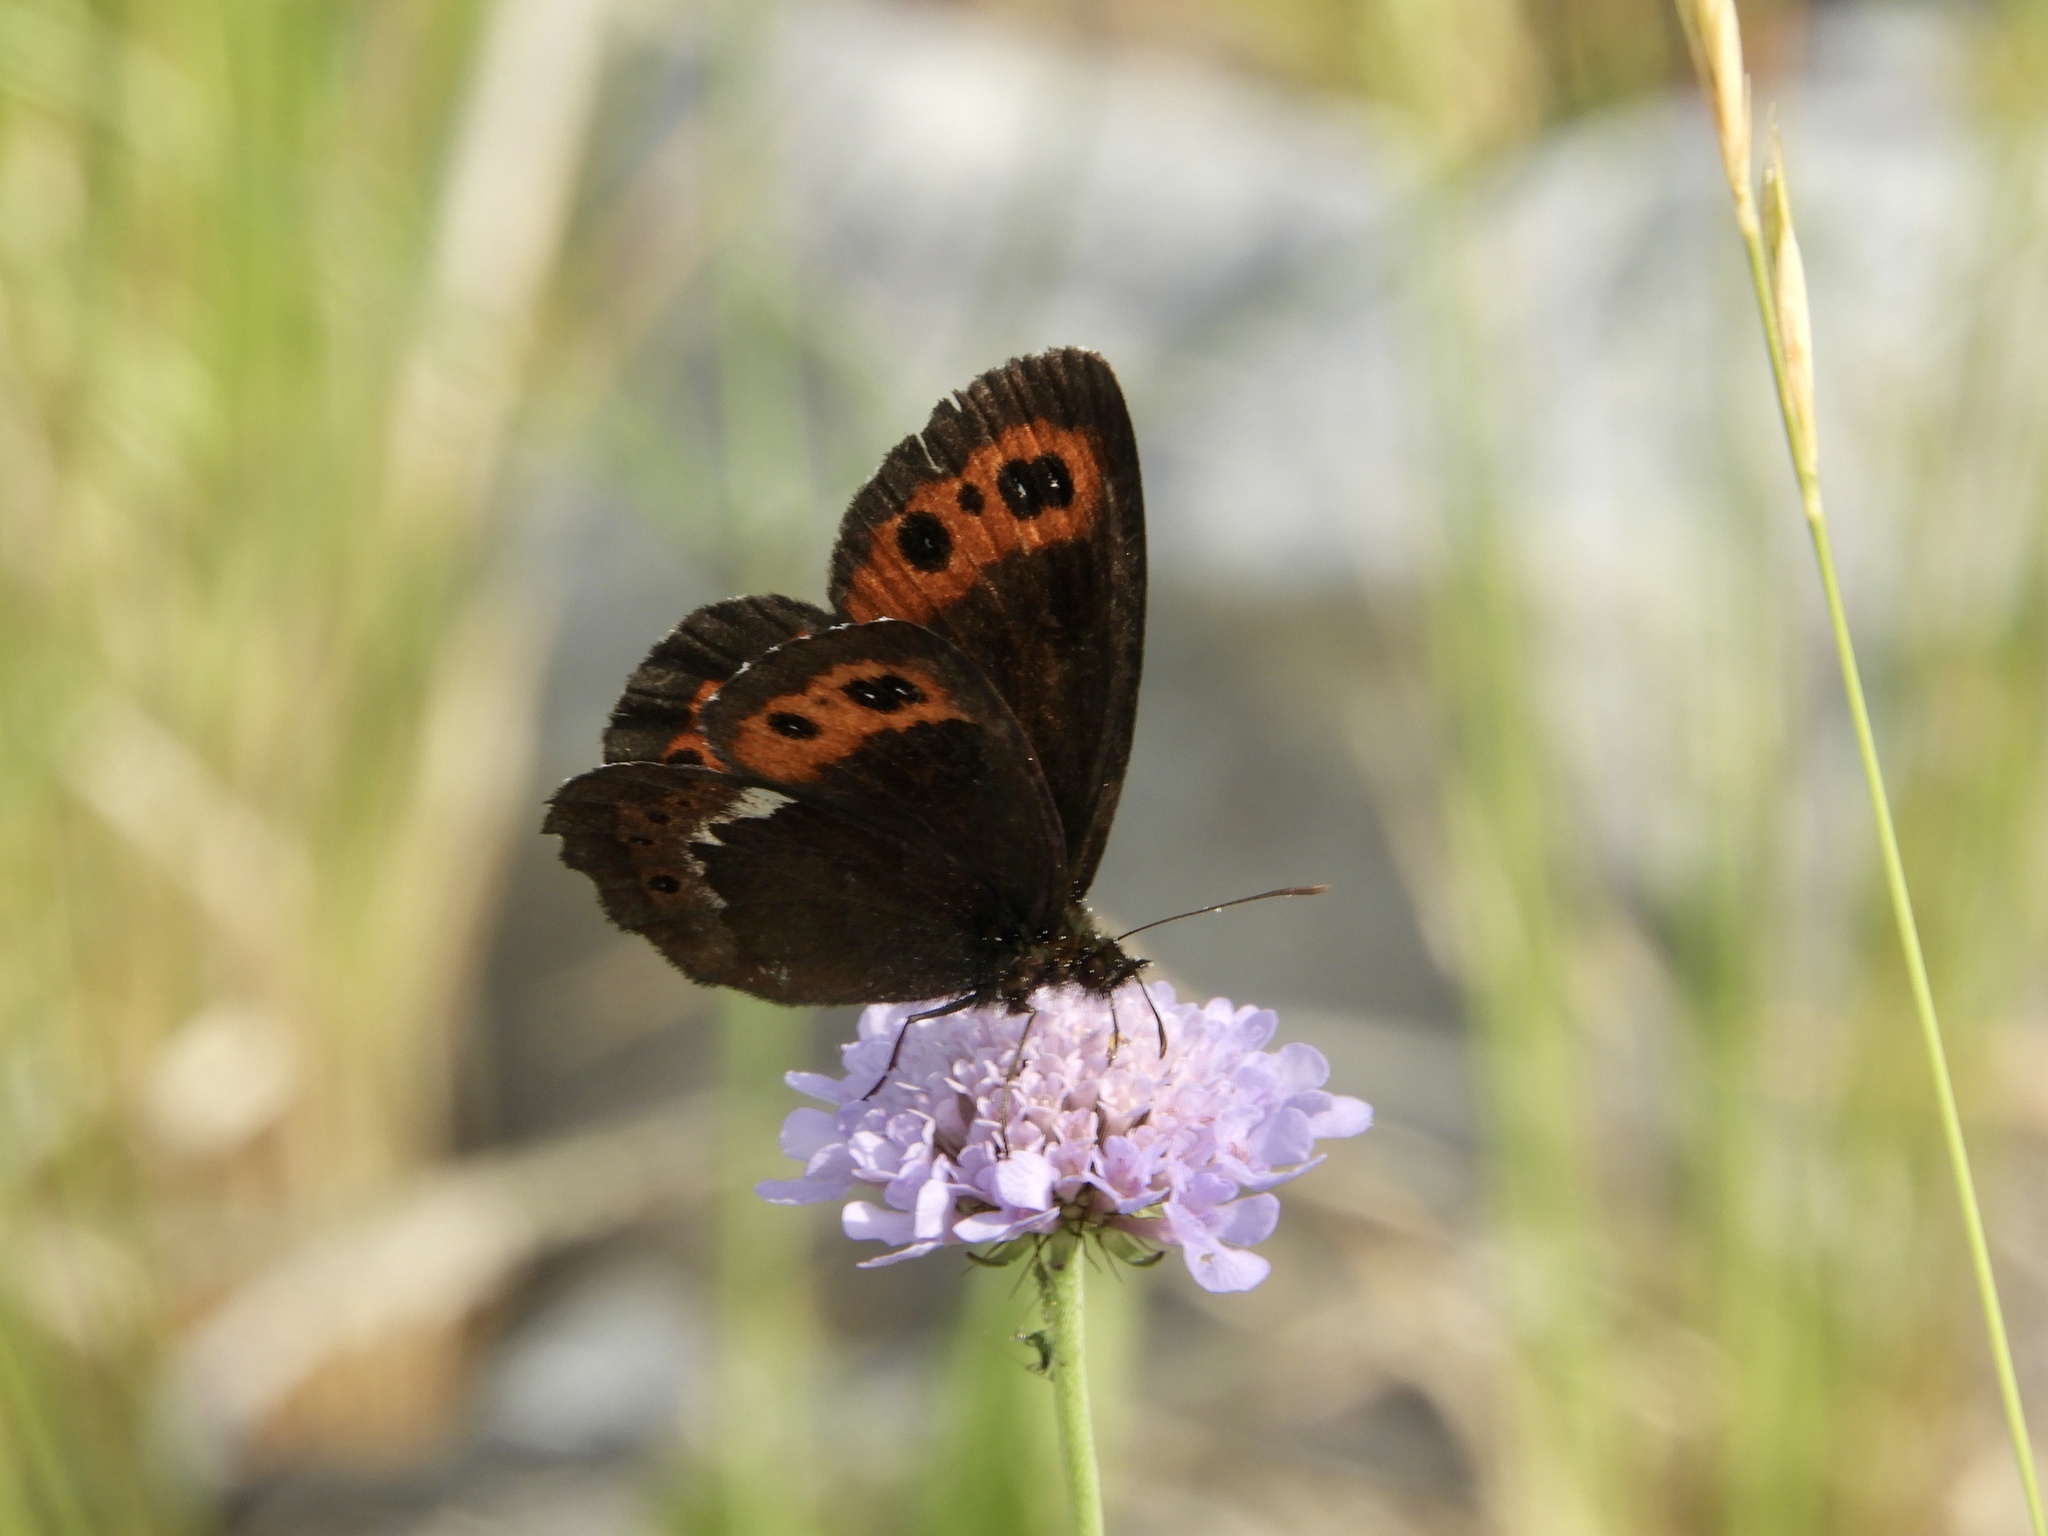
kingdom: Animalia
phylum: Arthropoda
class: Insecta
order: Lepidoptera
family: Nymphalidae
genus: Erebia
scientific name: Erebia ligea
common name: Arran brown
